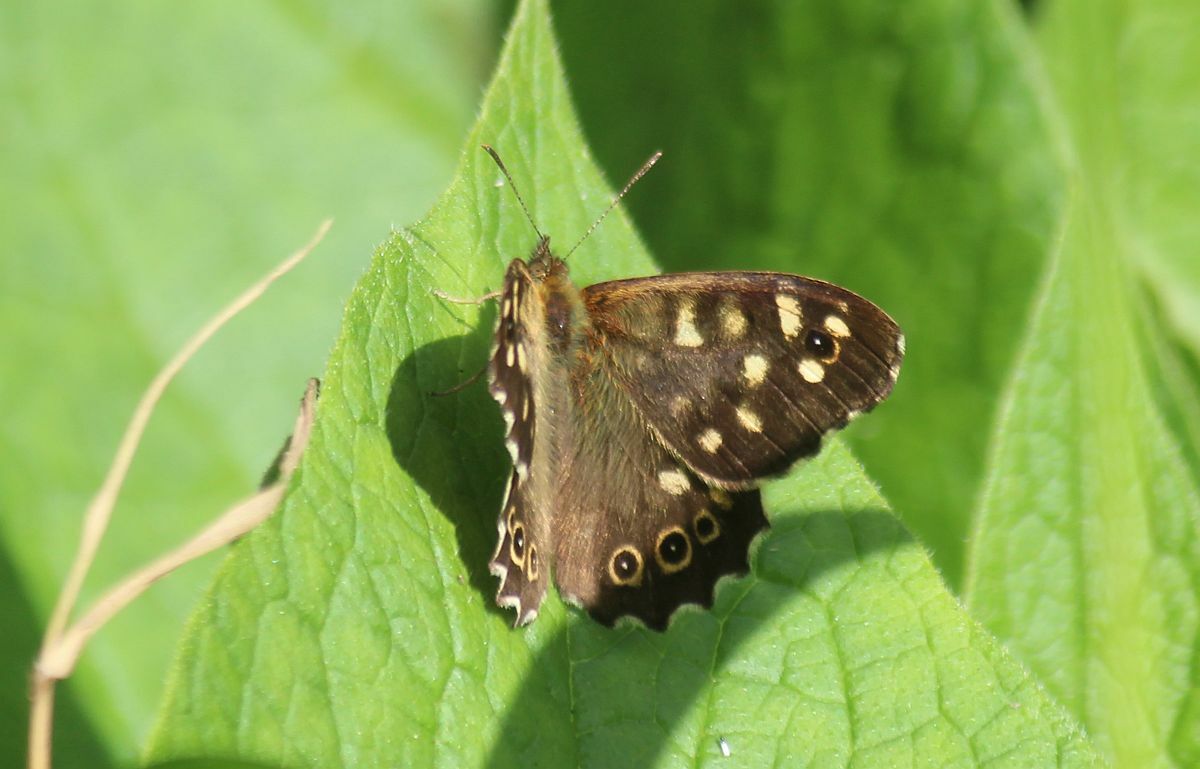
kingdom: Animalia
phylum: Arthropoda
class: Insecta
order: Lepidoptera
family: Nymphalidae
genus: Pararge
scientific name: Pararge aegeria
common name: Speckled wood
